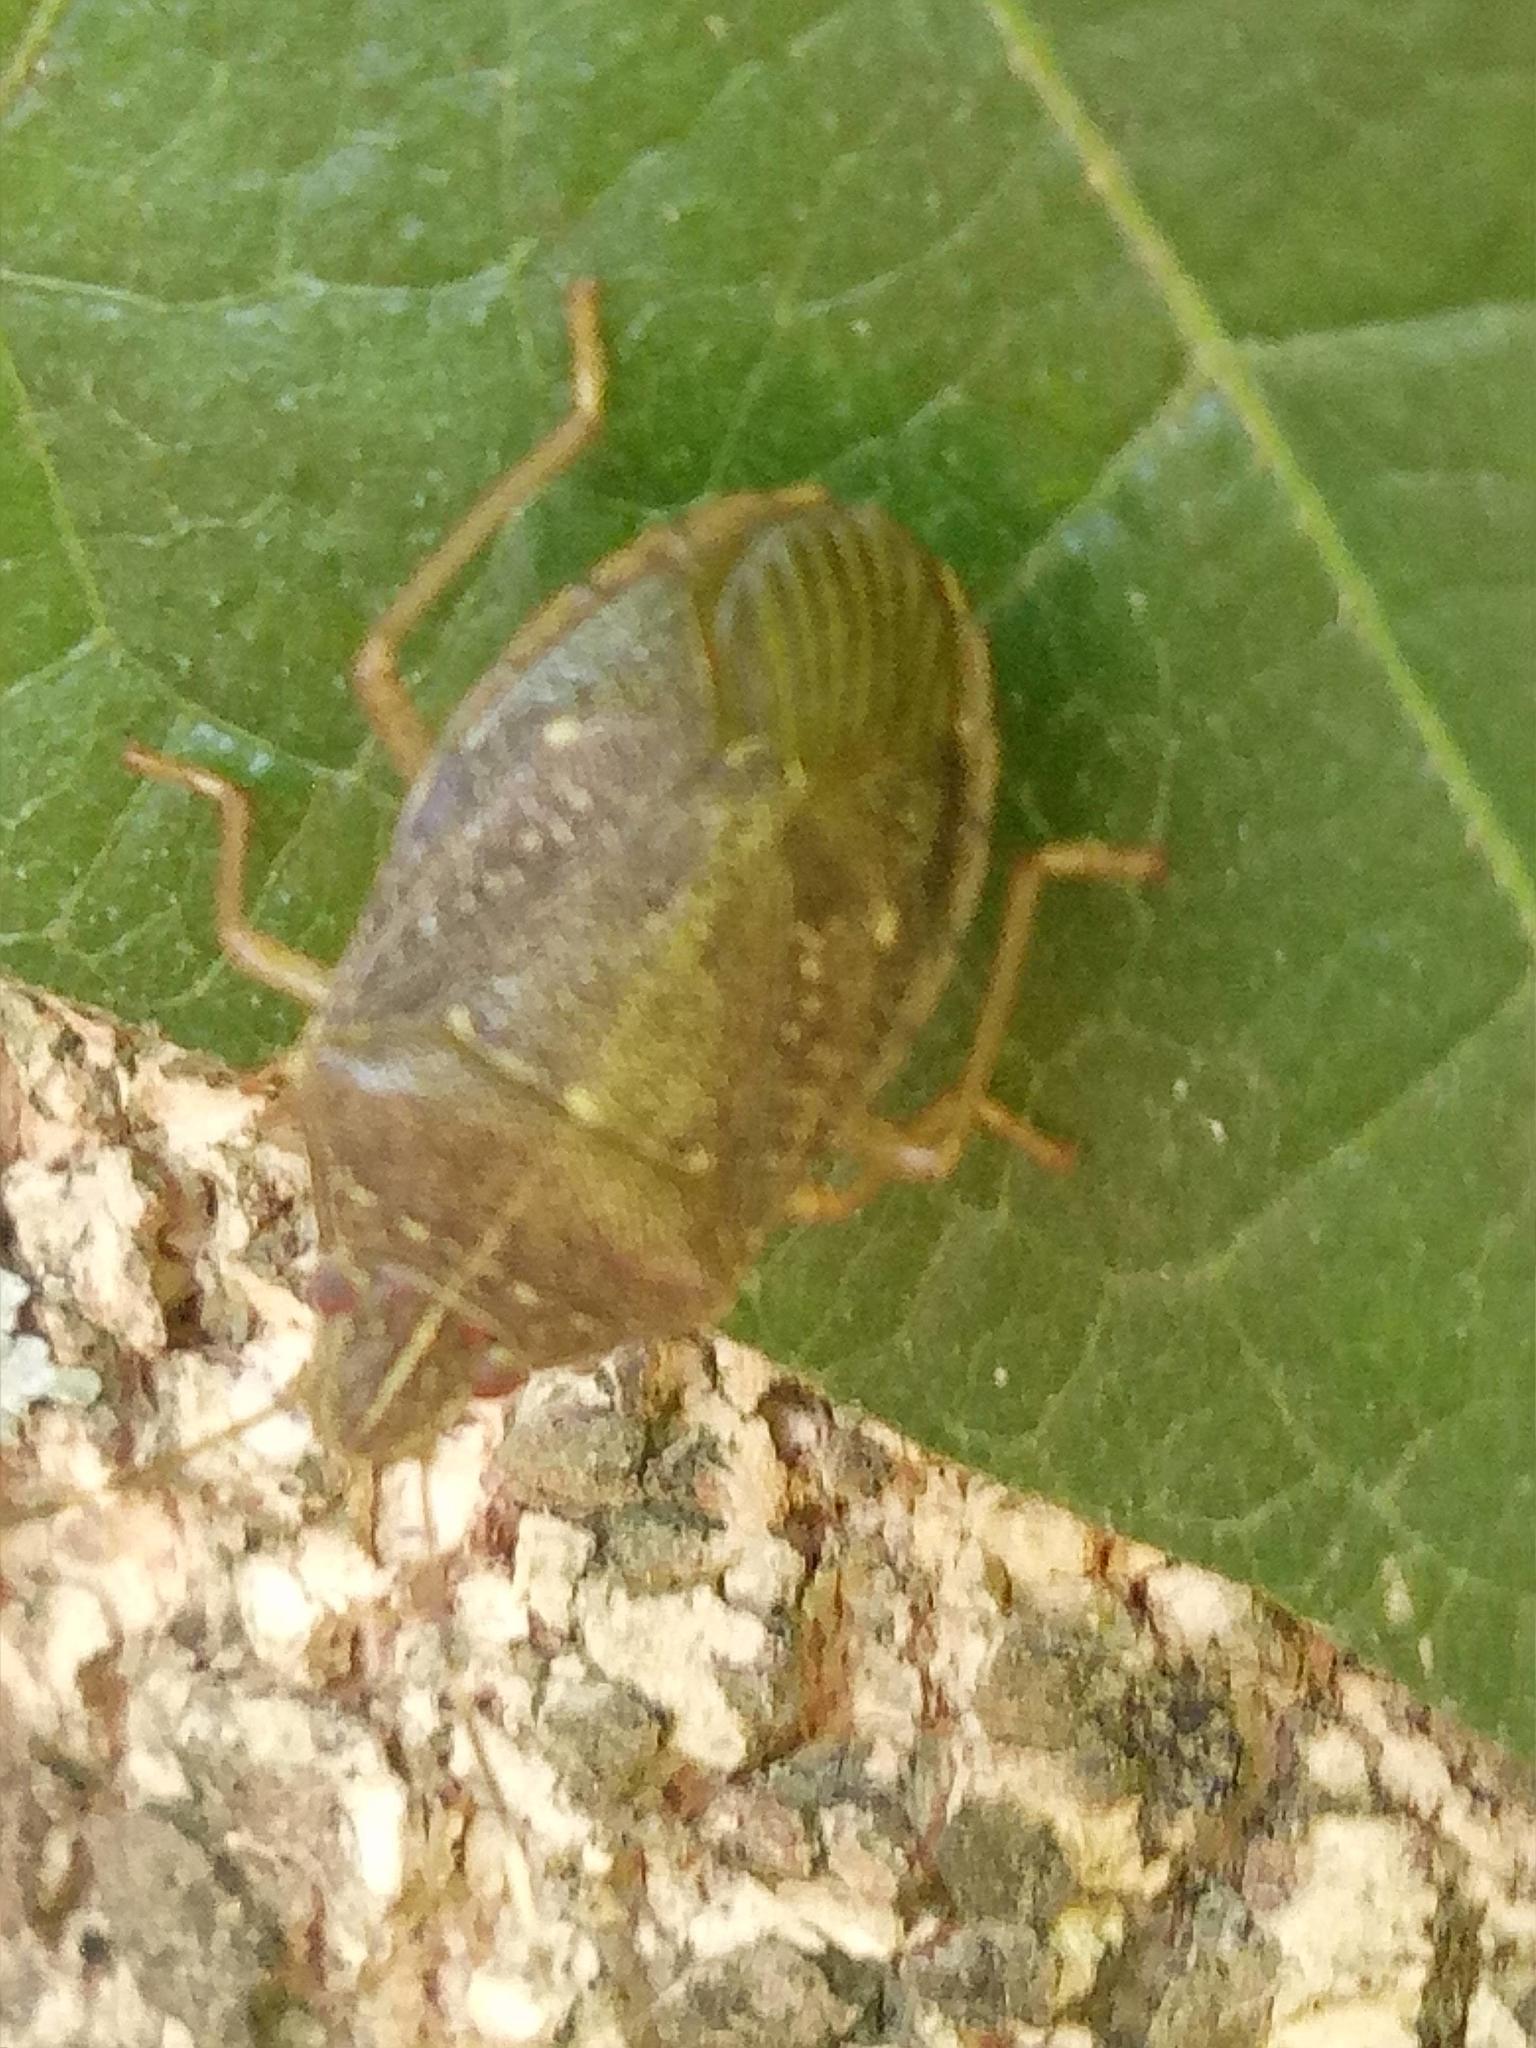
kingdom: Animalia
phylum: Arthropoda
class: Insecta
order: Hemiptera
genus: Critheus
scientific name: Critheus
